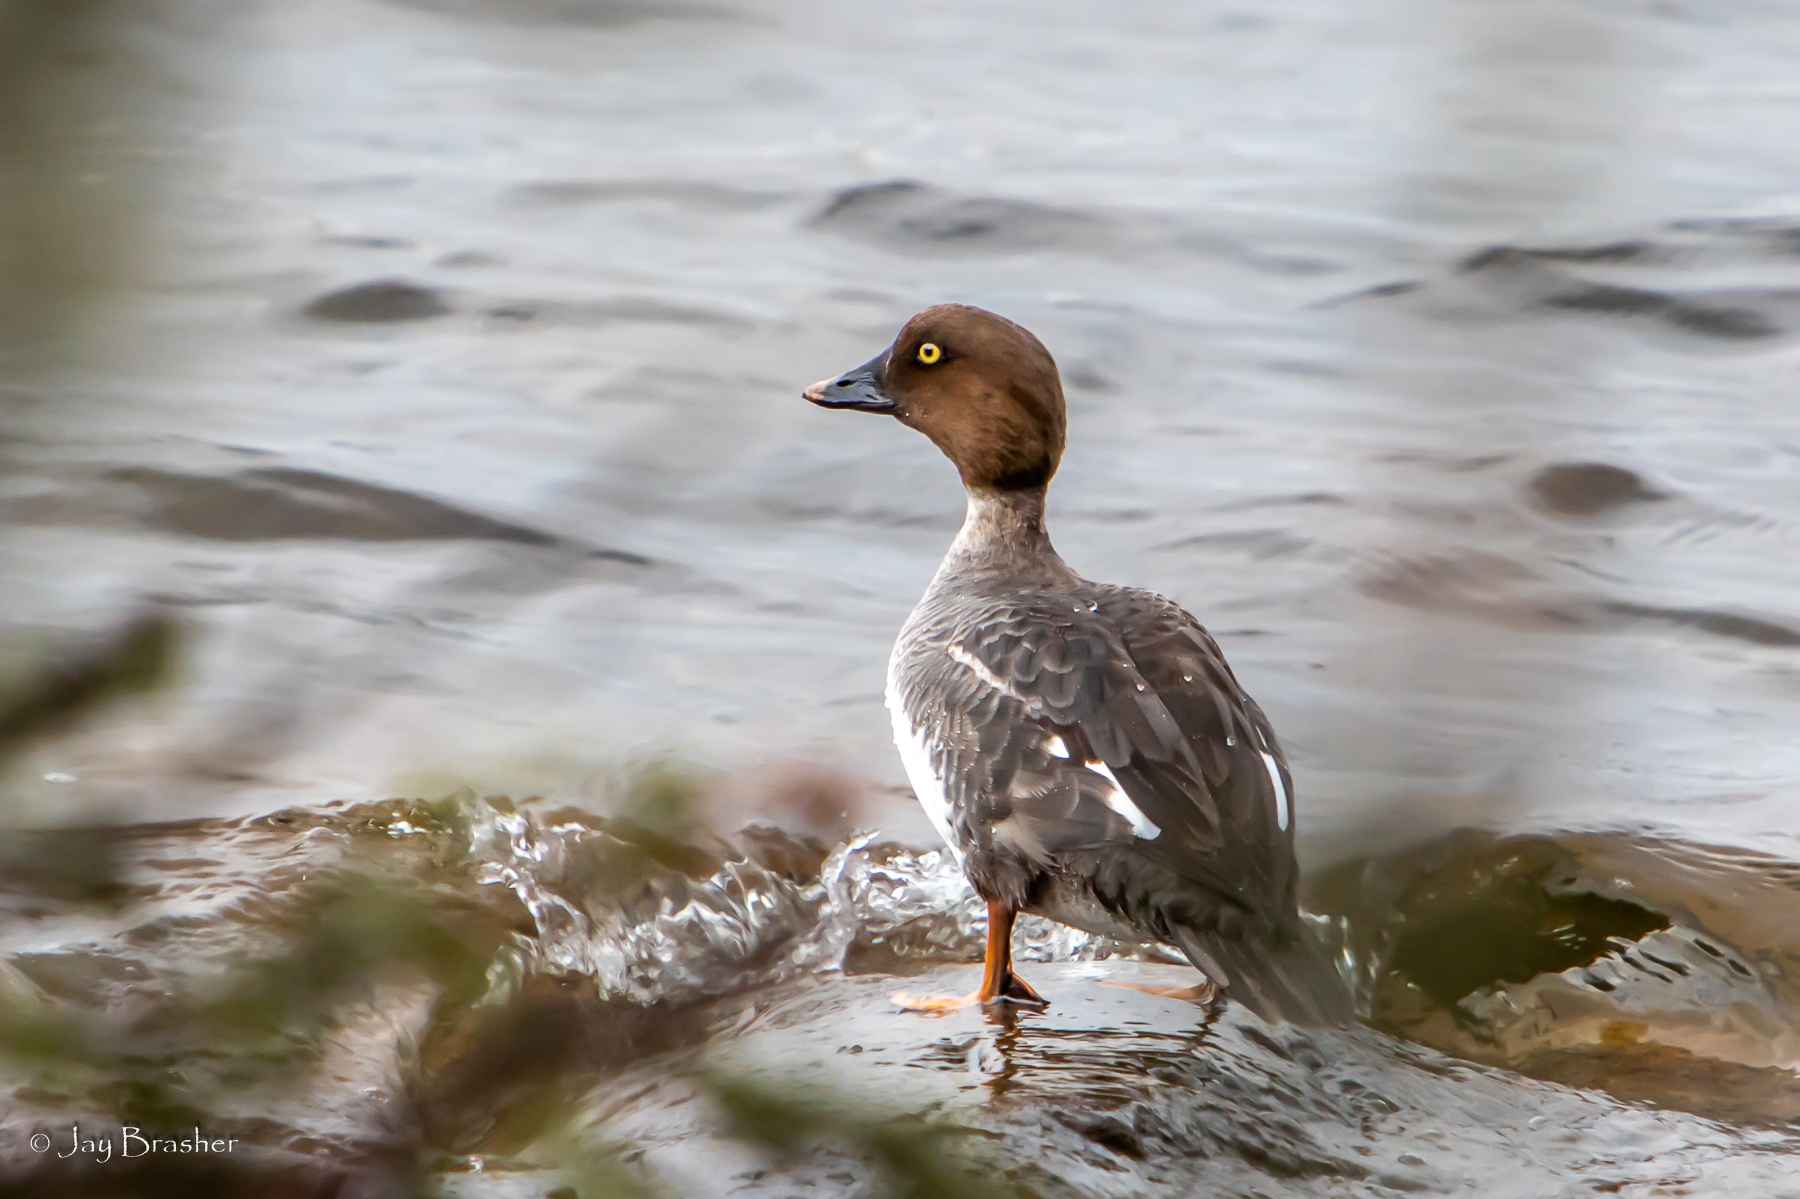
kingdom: Animalia
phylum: Chordata
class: Aves
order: Anseriformes
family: Anatidae
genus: Bucephala
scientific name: Bucephala clangula
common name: Common goldeneye
